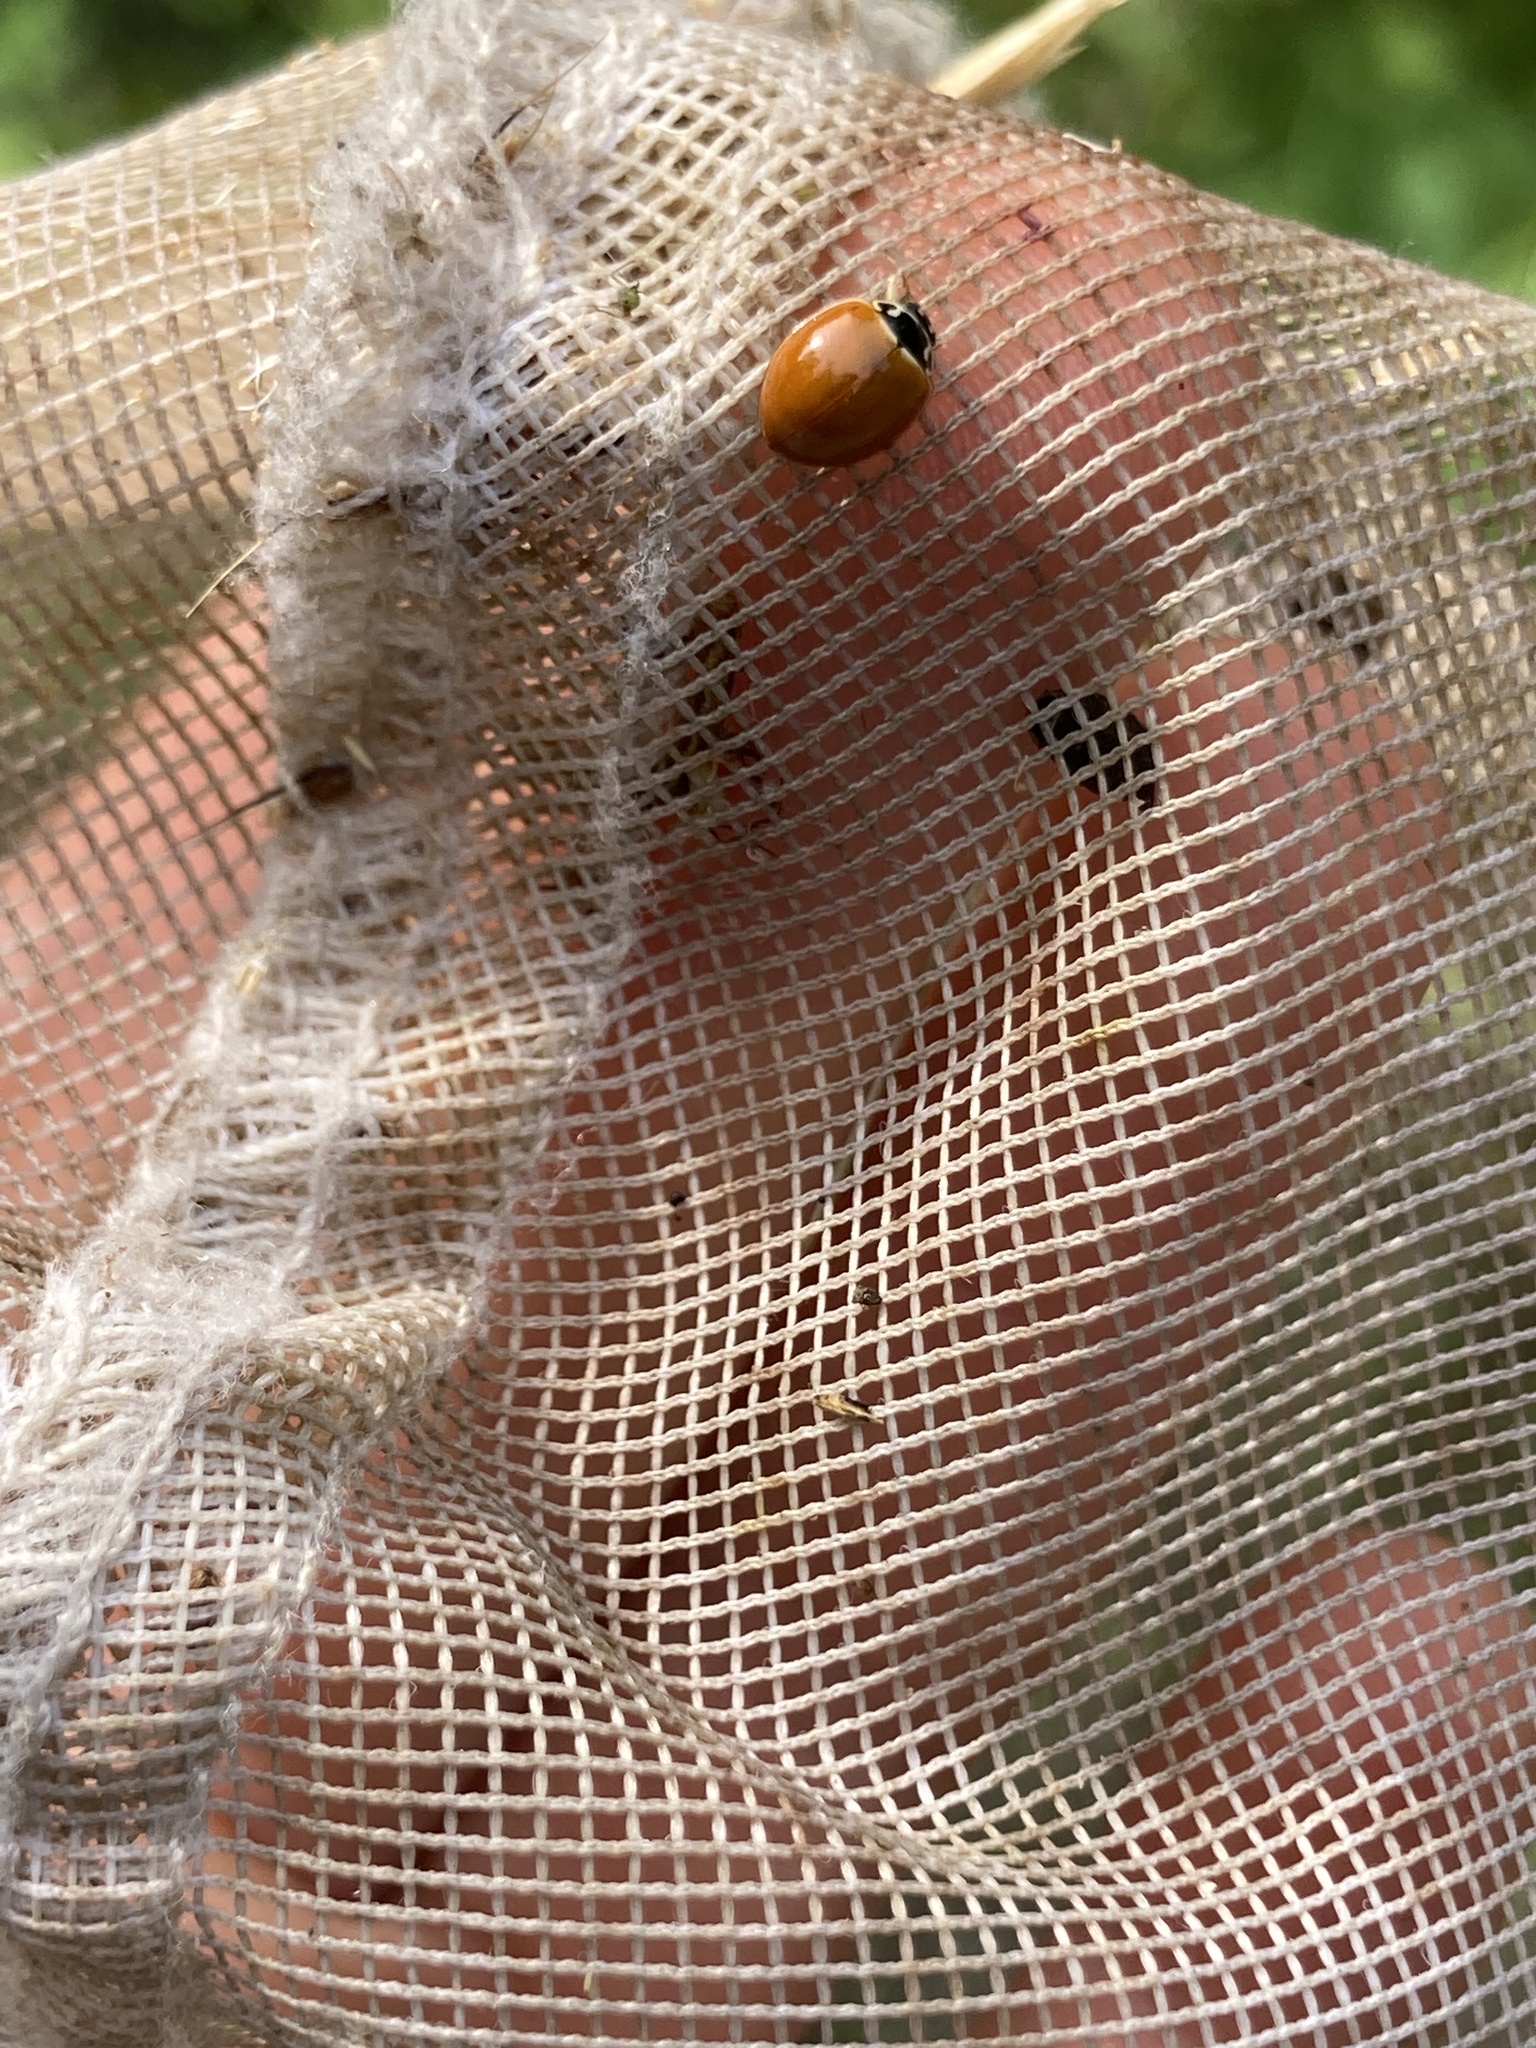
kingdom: Animalia
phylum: Arthropoda
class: Insecta
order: Coleoptera
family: Coccinellidae
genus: Cycloneda
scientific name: Cycloneda munda
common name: Polished lady beetle
